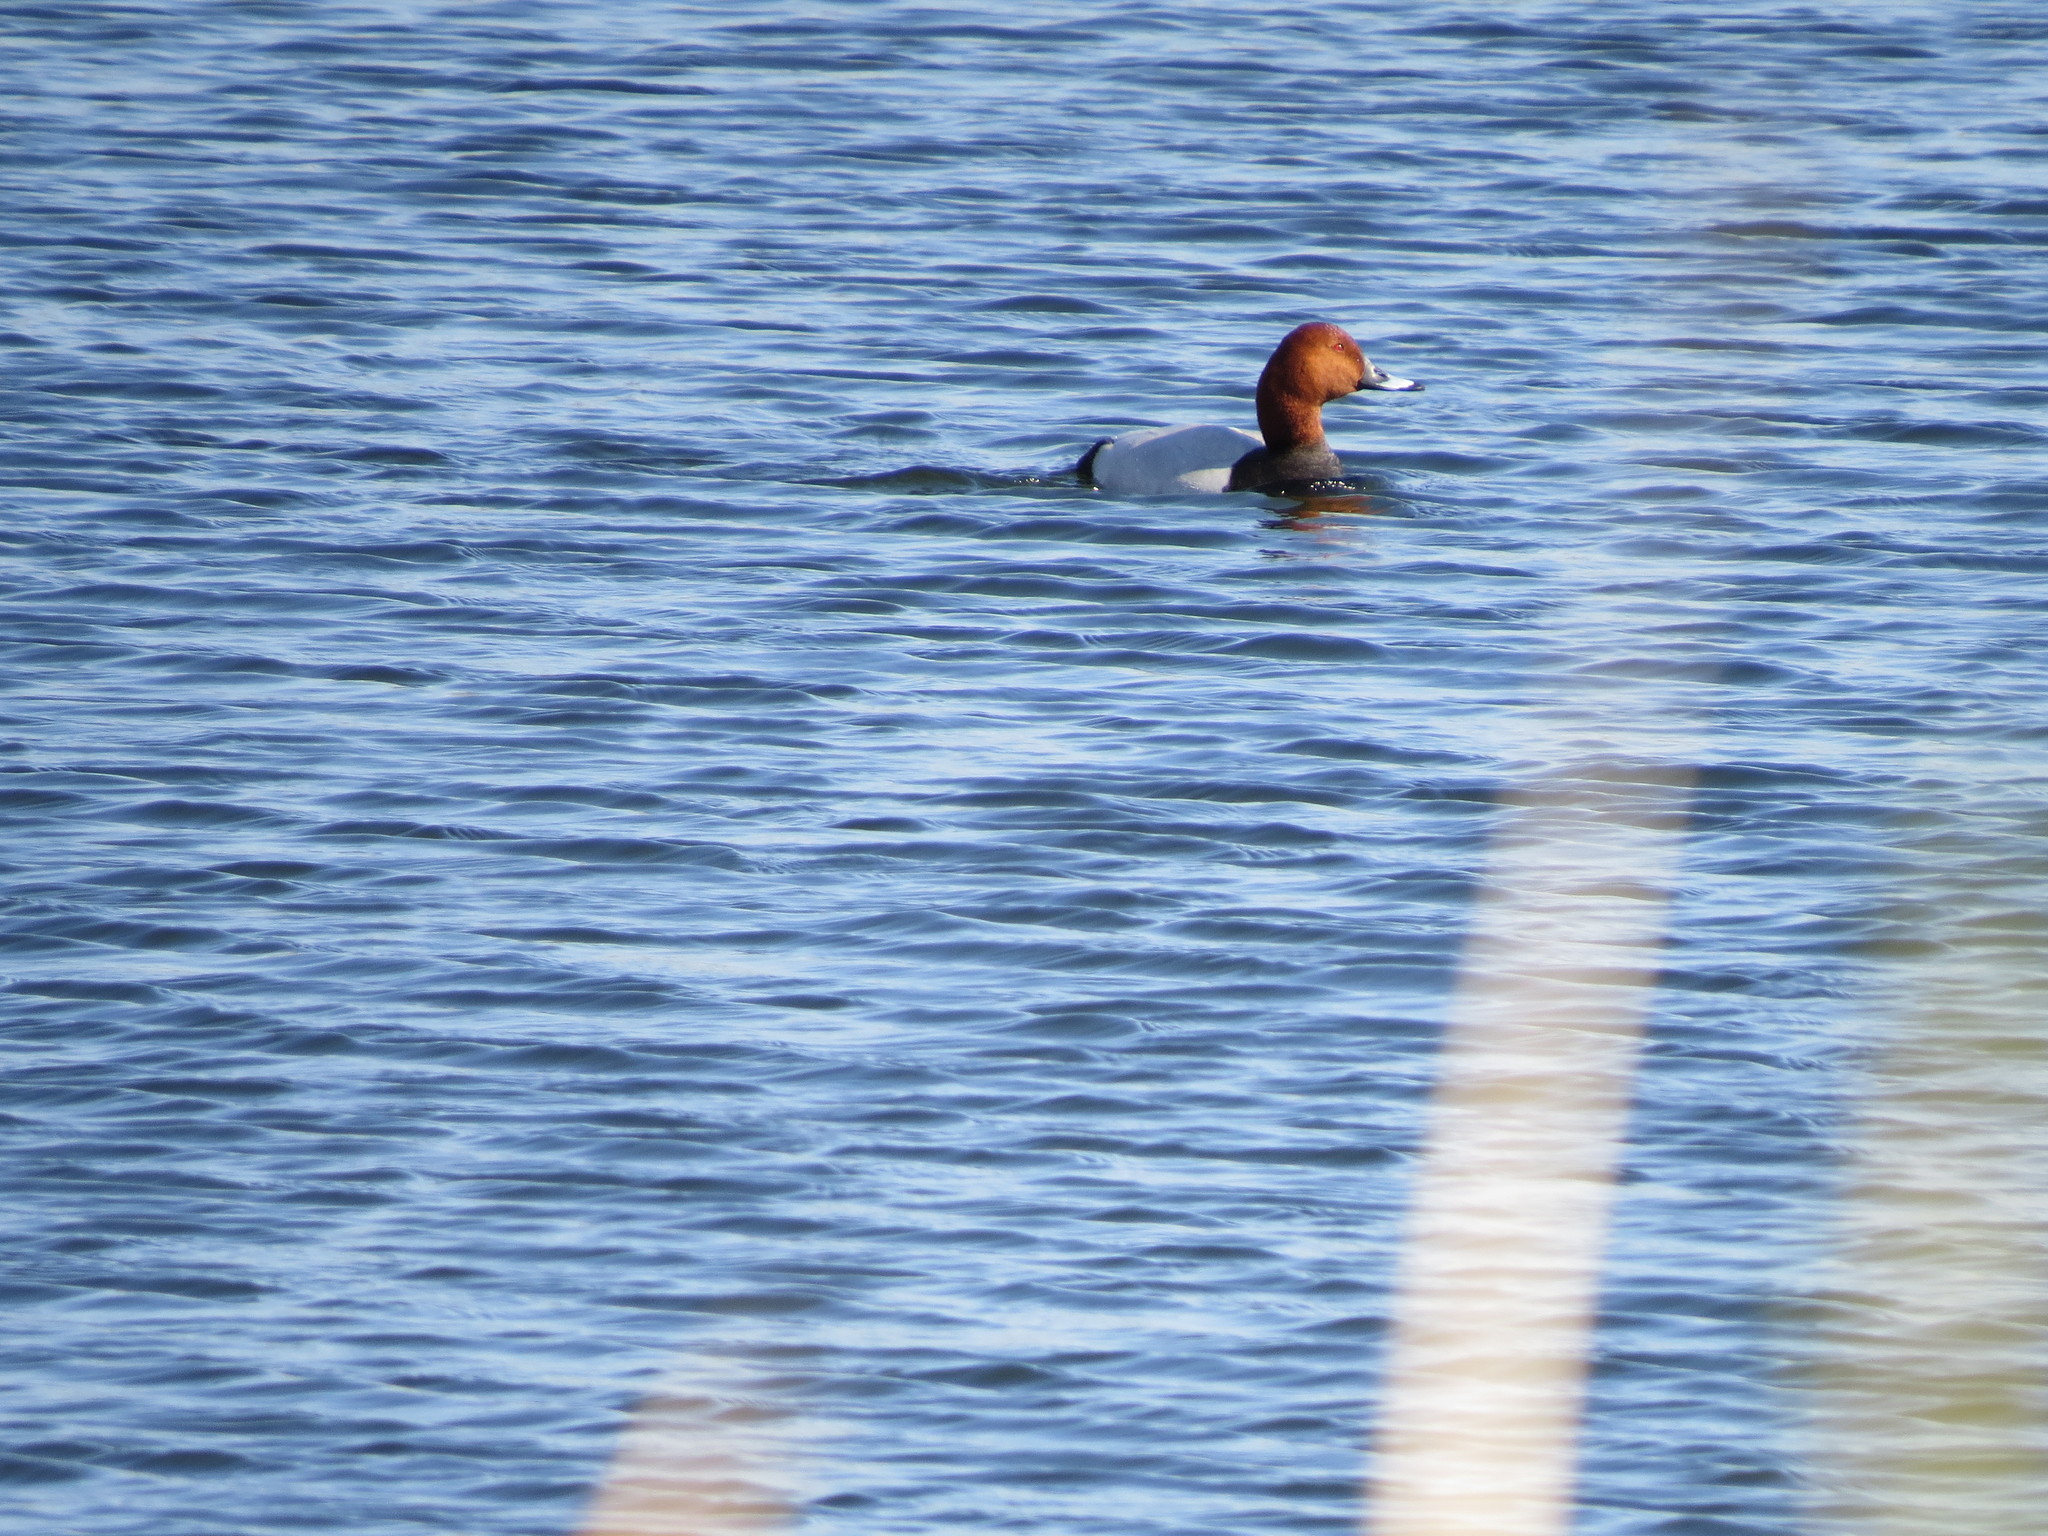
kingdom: Animalia
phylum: Chordata
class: Aves
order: Anseriformes
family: Anatidae
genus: Aythya
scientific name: Aythya ferina
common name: Common pochard
